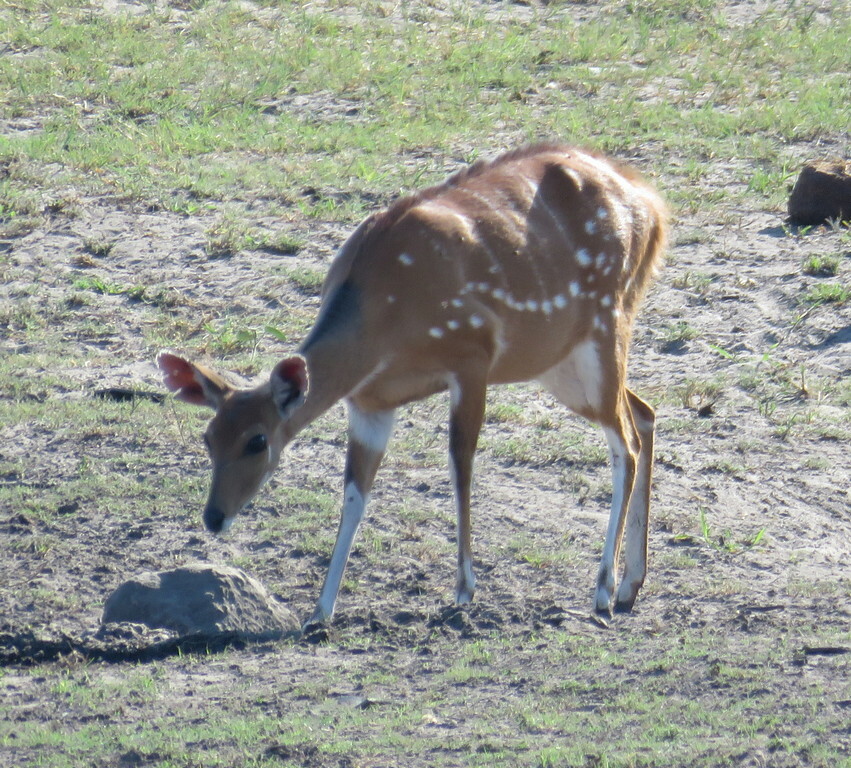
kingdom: Animalia
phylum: Chordata
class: Mammalia
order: Artiodactyla
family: Bovidae
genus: Tragelaphus
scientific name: Tragelaphus scriptus
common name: Bushbuck
